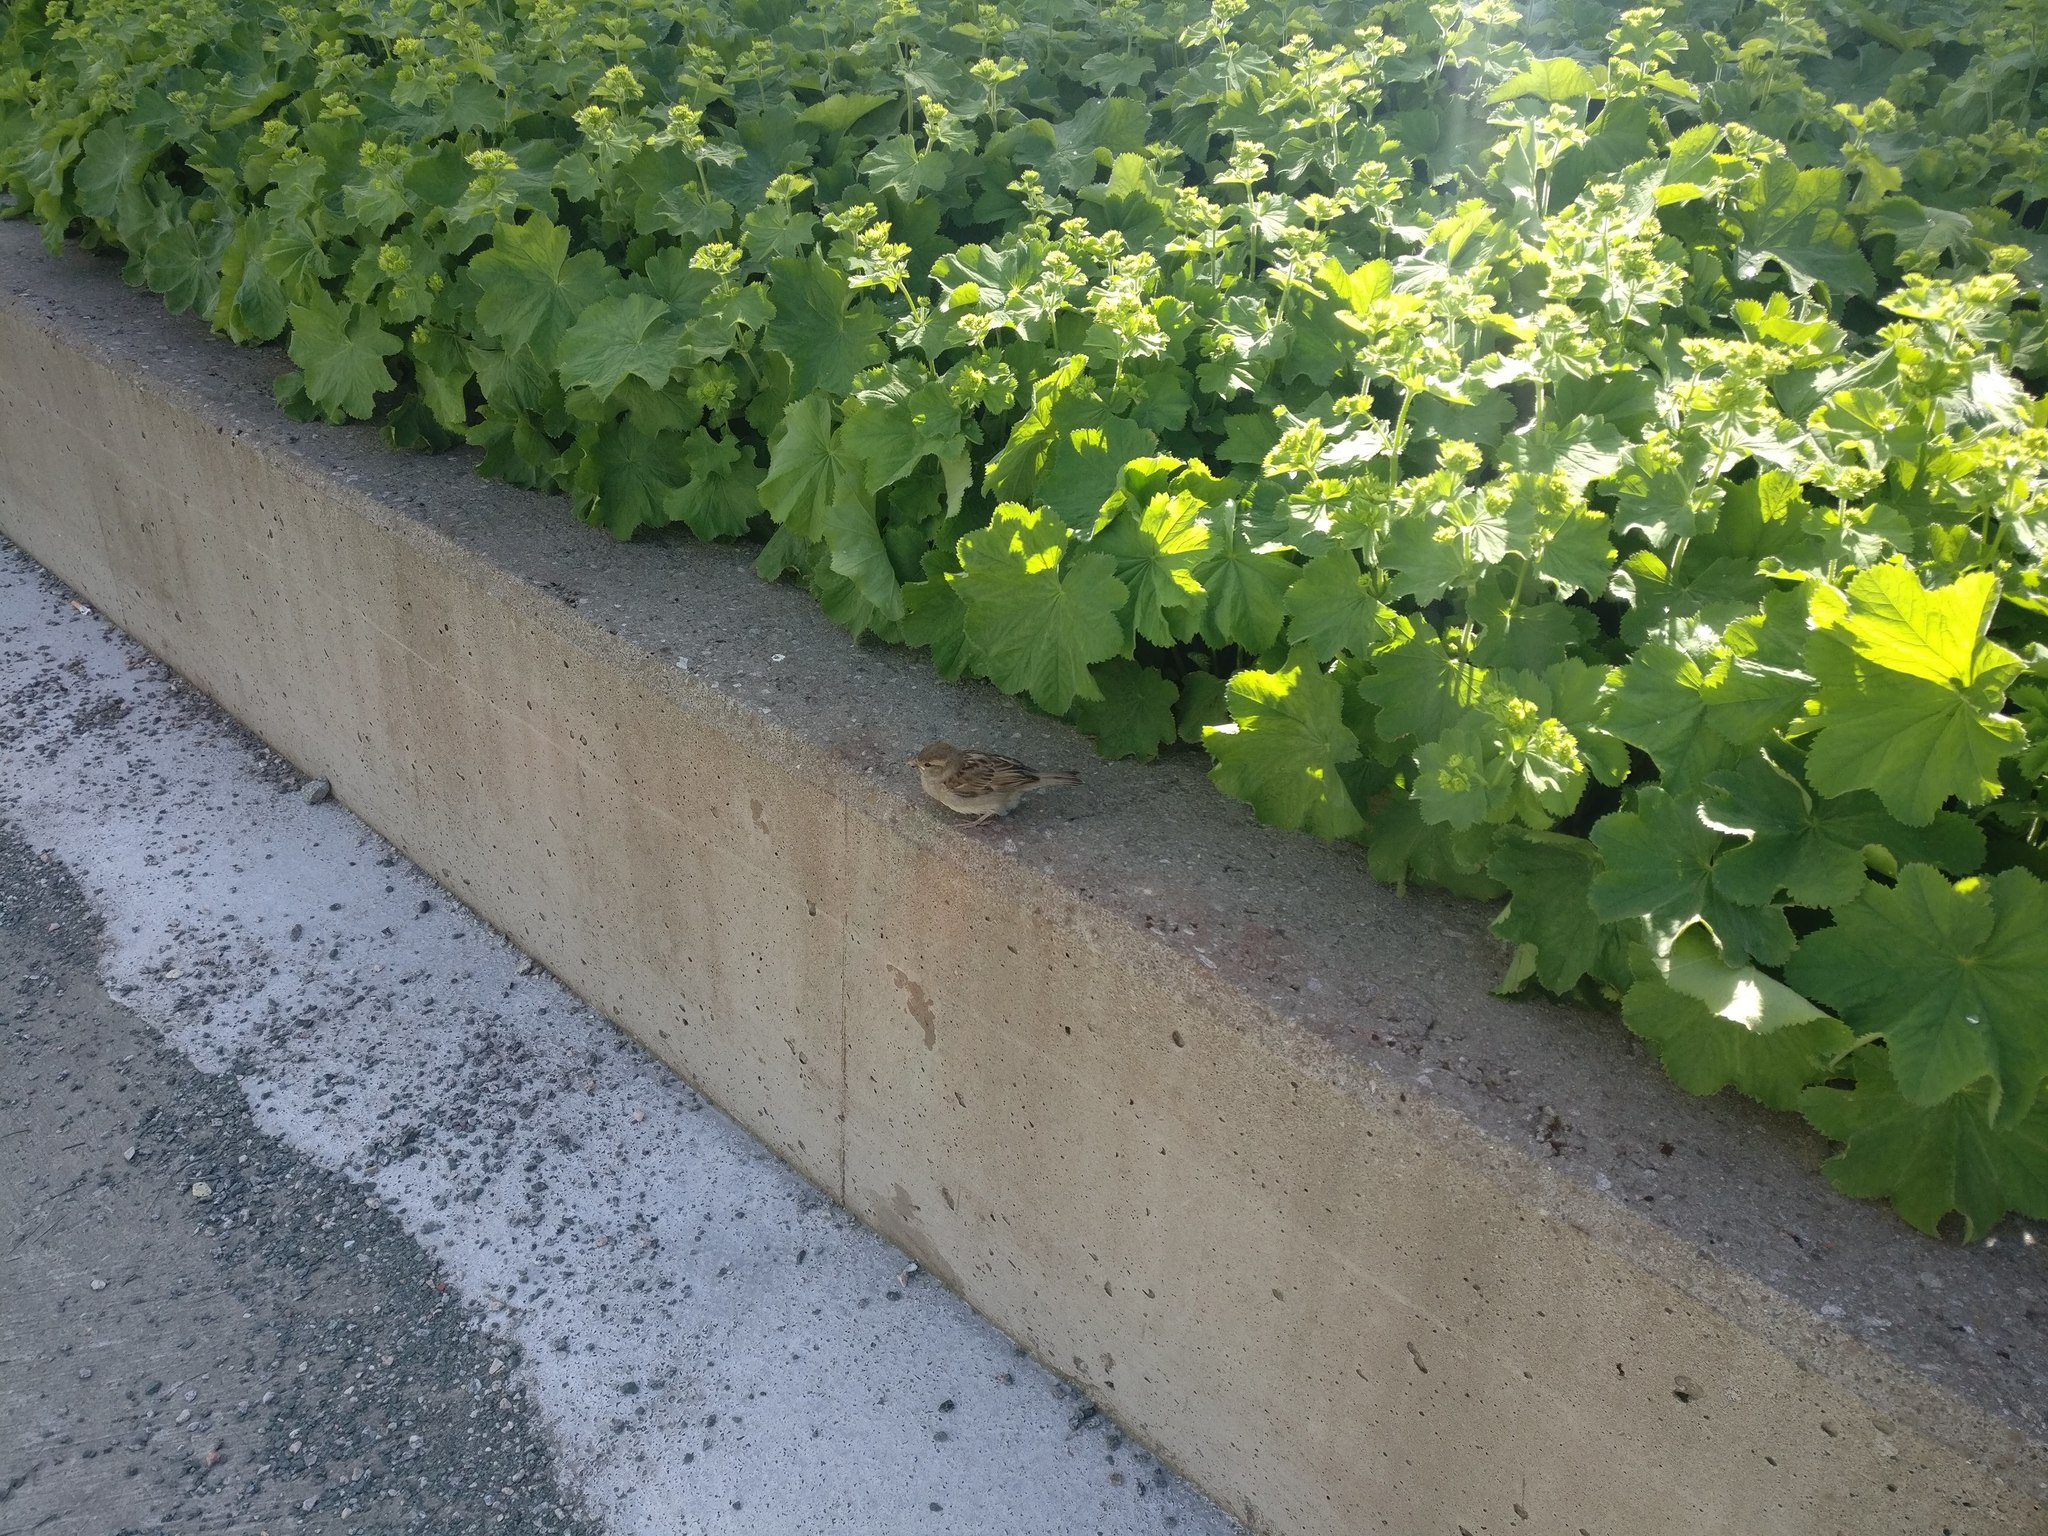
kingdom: Animalia
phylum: Chordata
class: Aves
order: Passeriformes
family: Passeridae
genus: Passer
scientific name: Passer domesticus
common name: House sparrow
